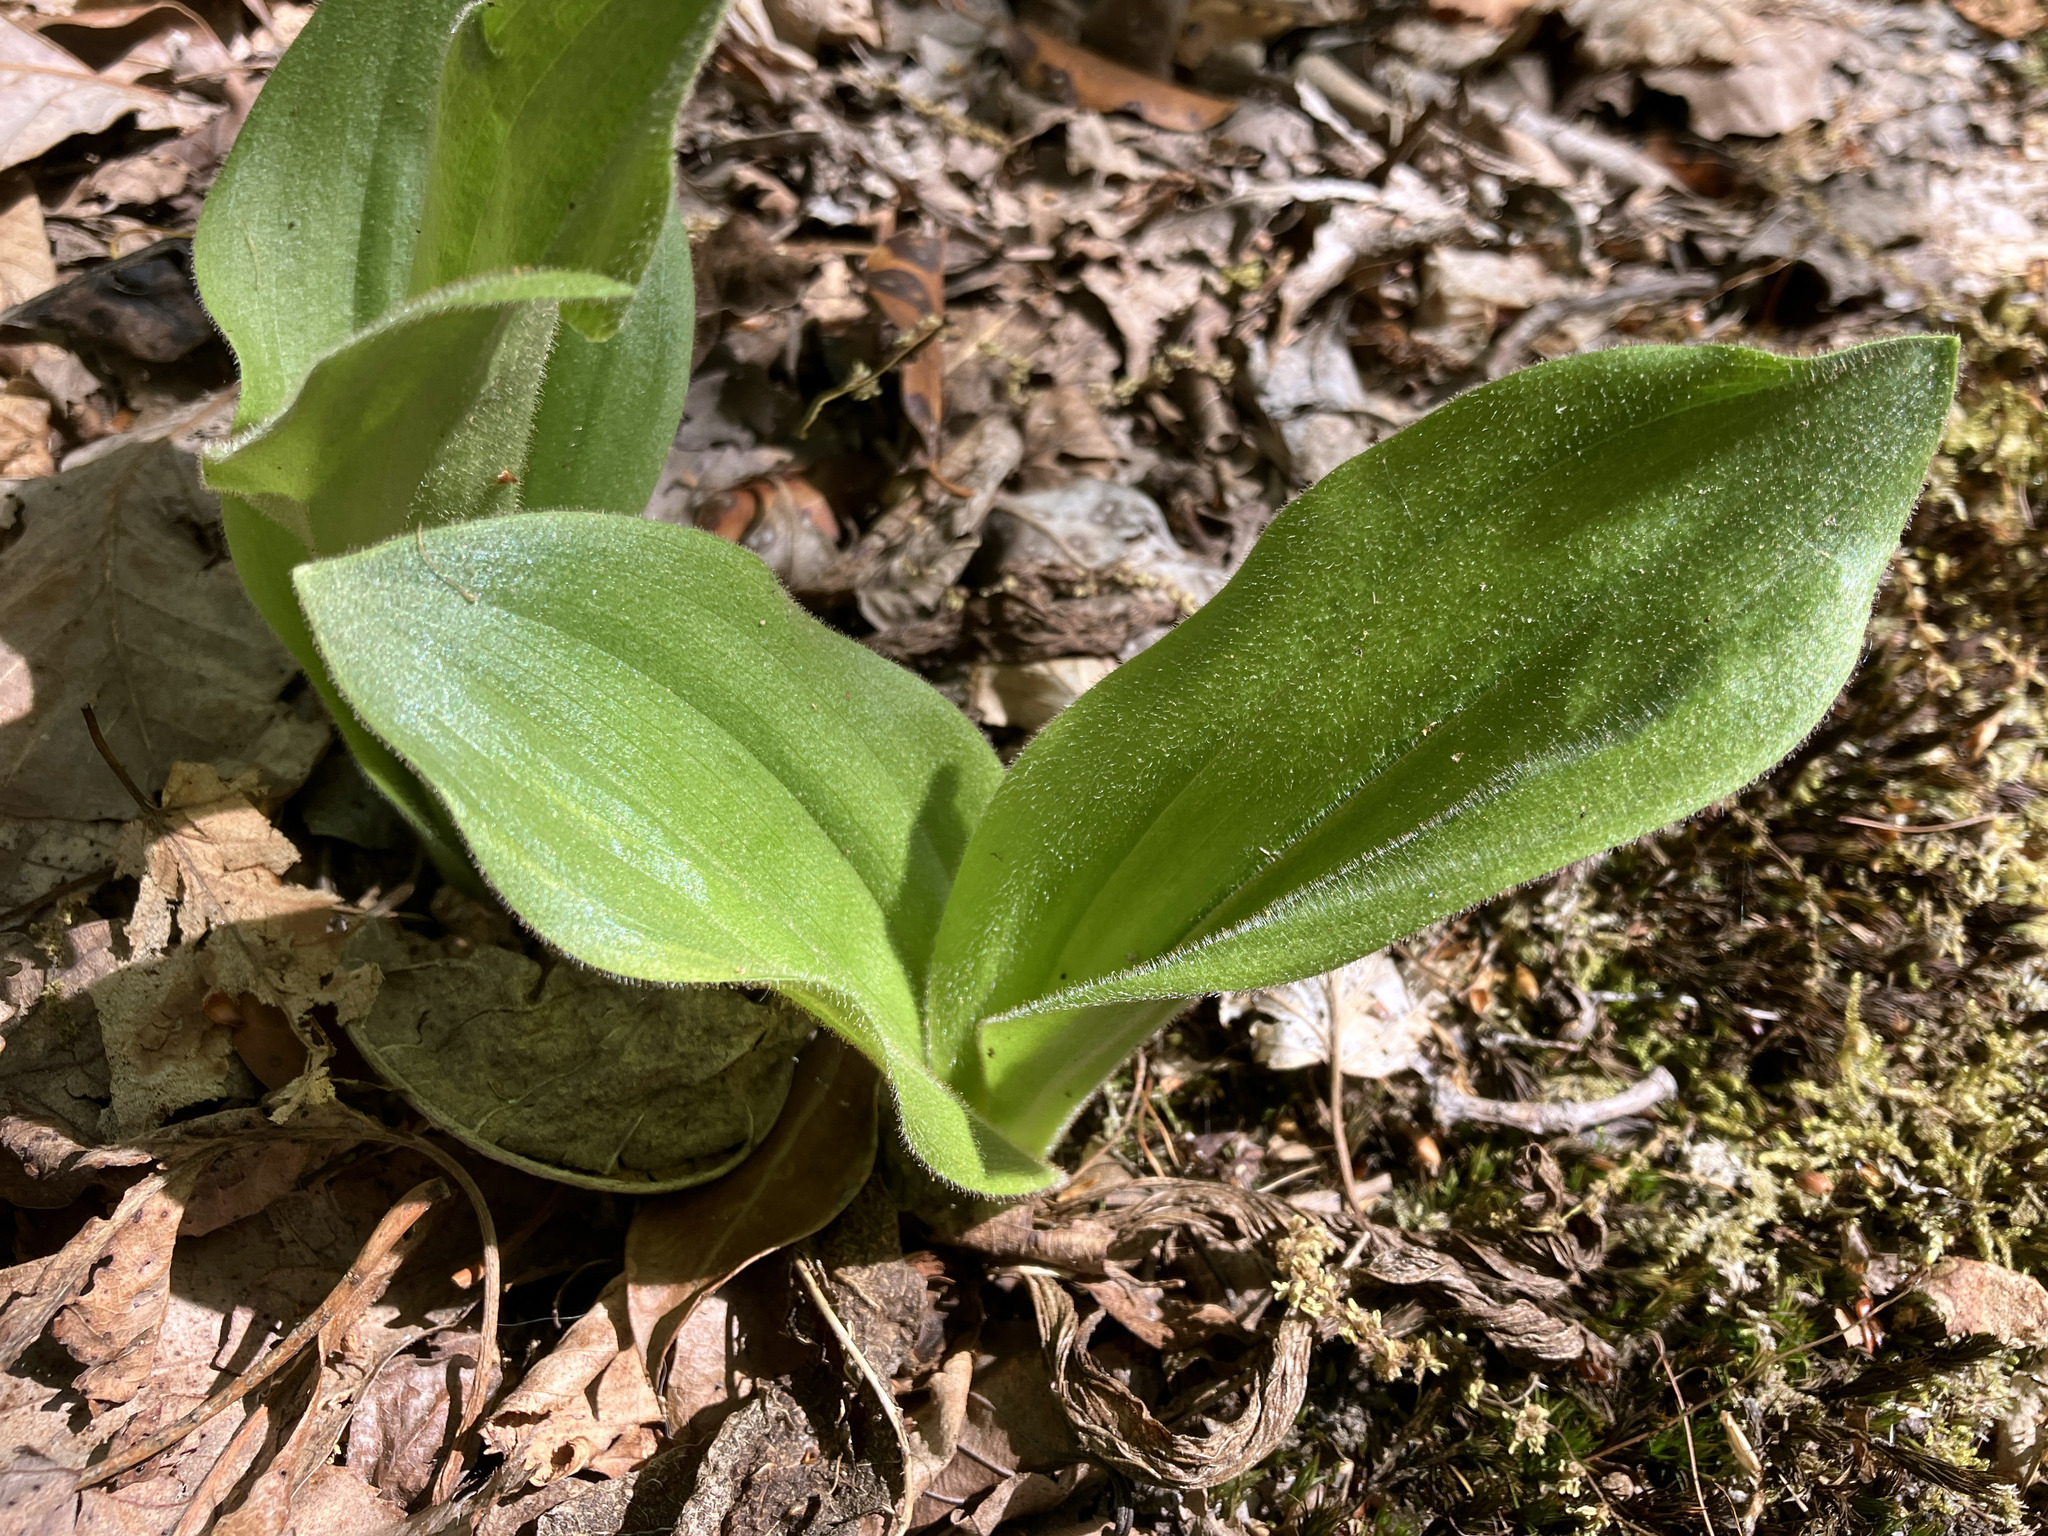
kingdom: Plantae
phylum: Tracheophyta
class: Liliopsida
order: Asparagales
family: Orchidaceae
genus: Cypripedium
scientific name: Cypripedium acaule
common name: Pink lady's-slipper
